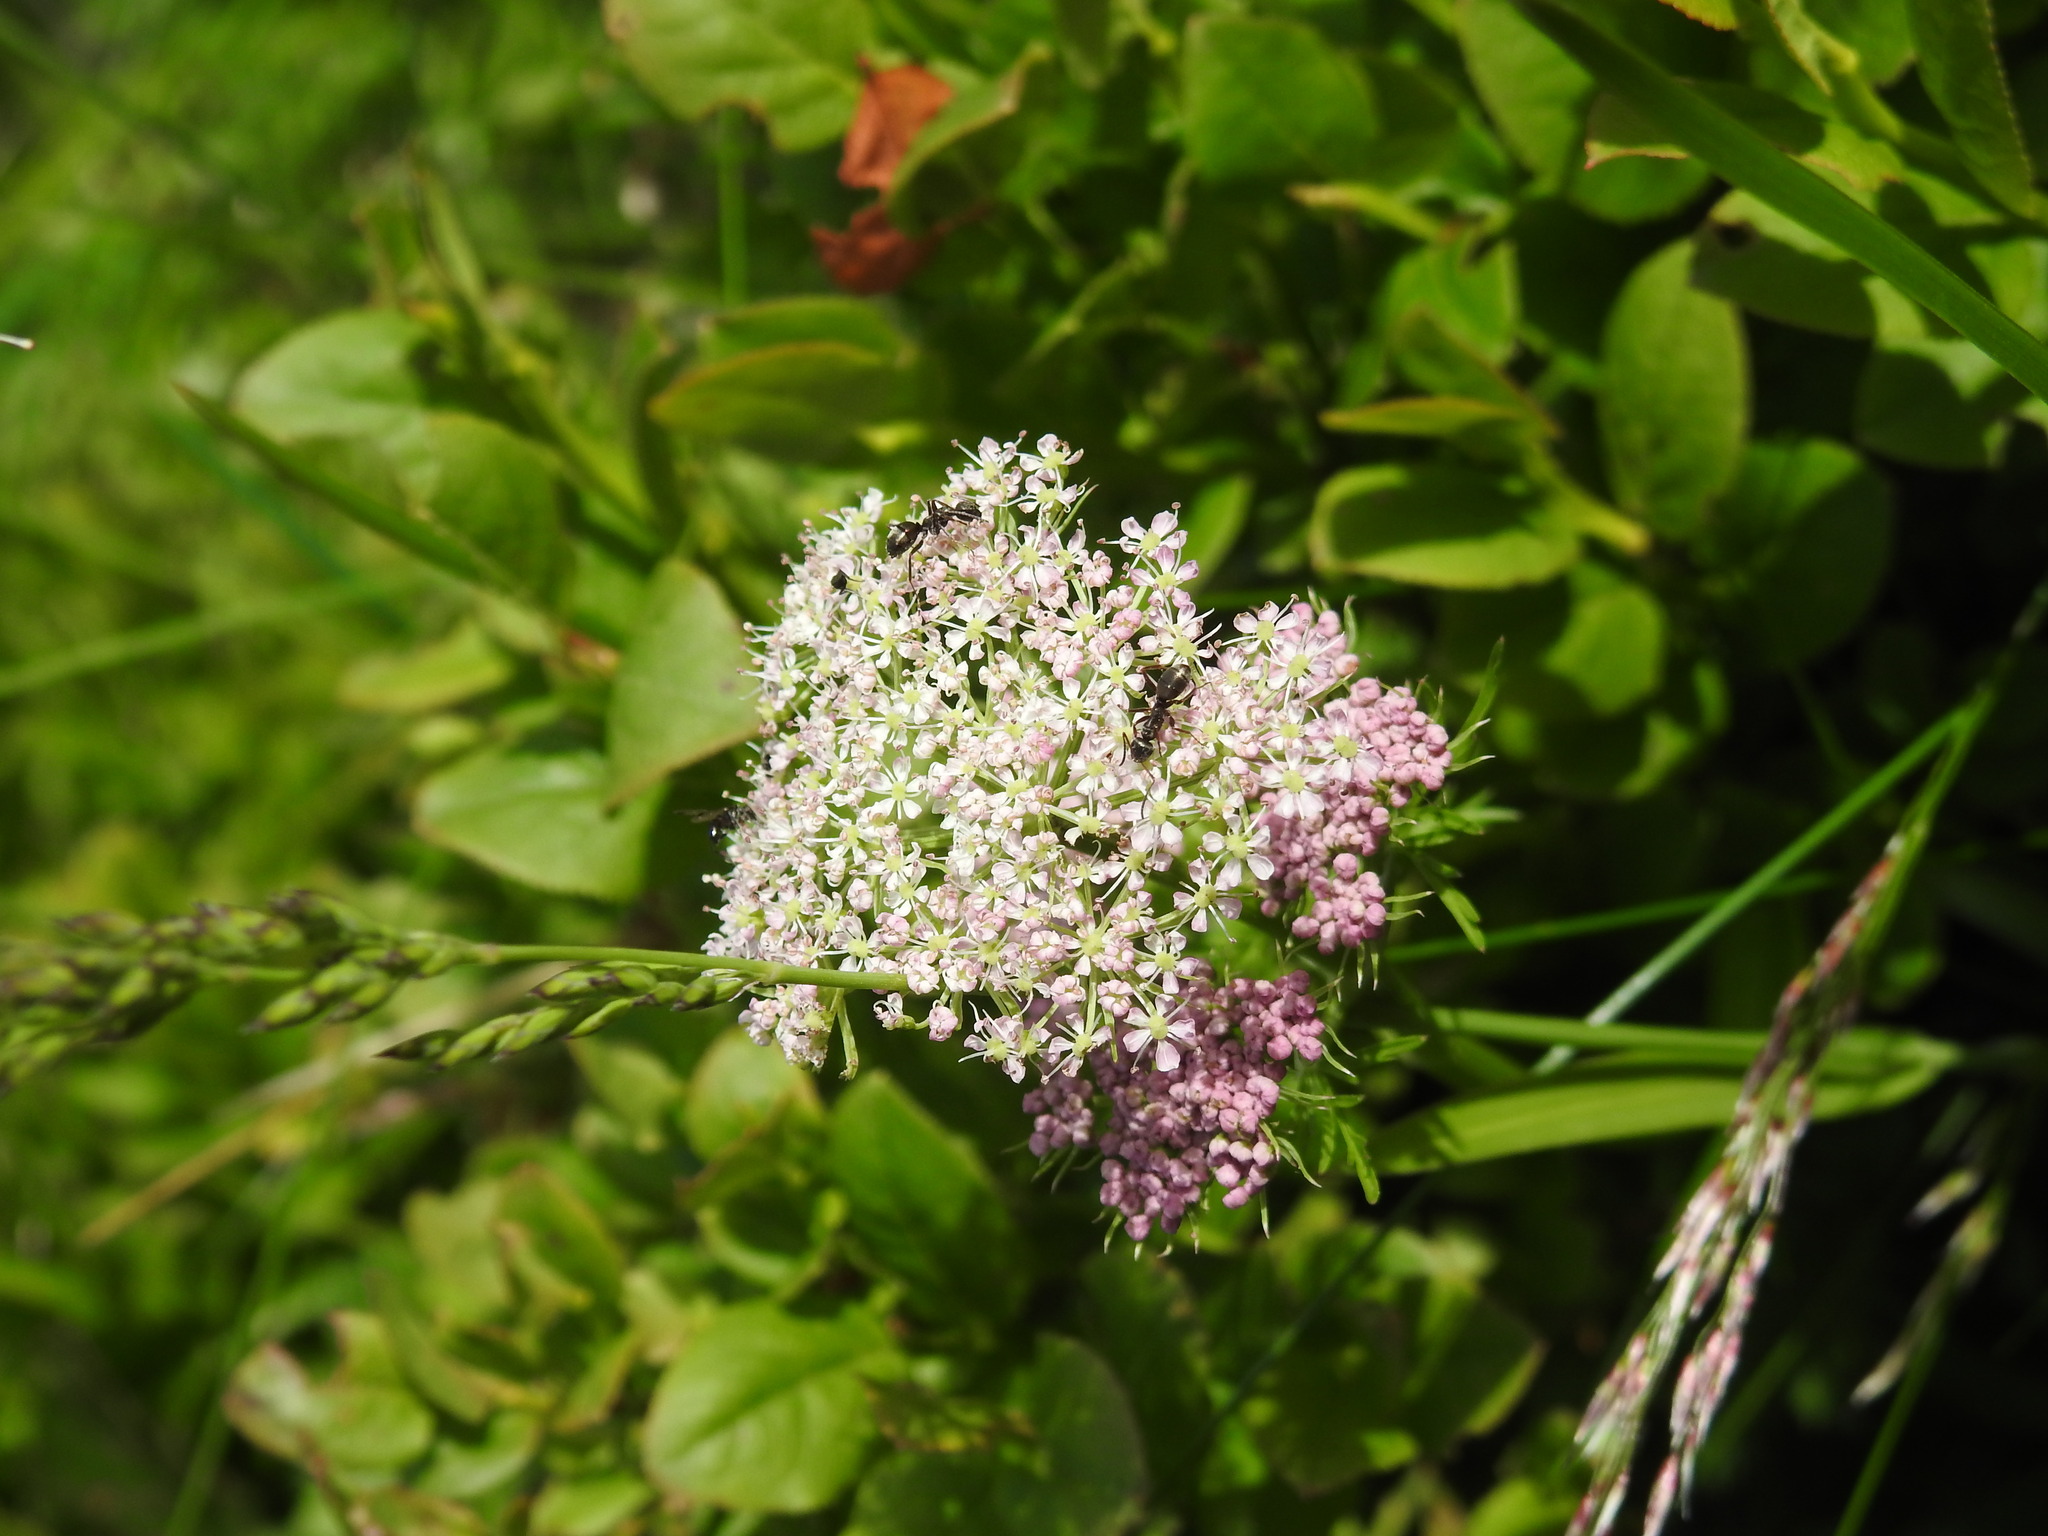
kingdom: Plantae
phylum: Tracheophyta
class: Magnoliopsida
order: Apiales
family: Apiaceae
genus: Mutellina
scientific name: Mutellina adonidifolia
